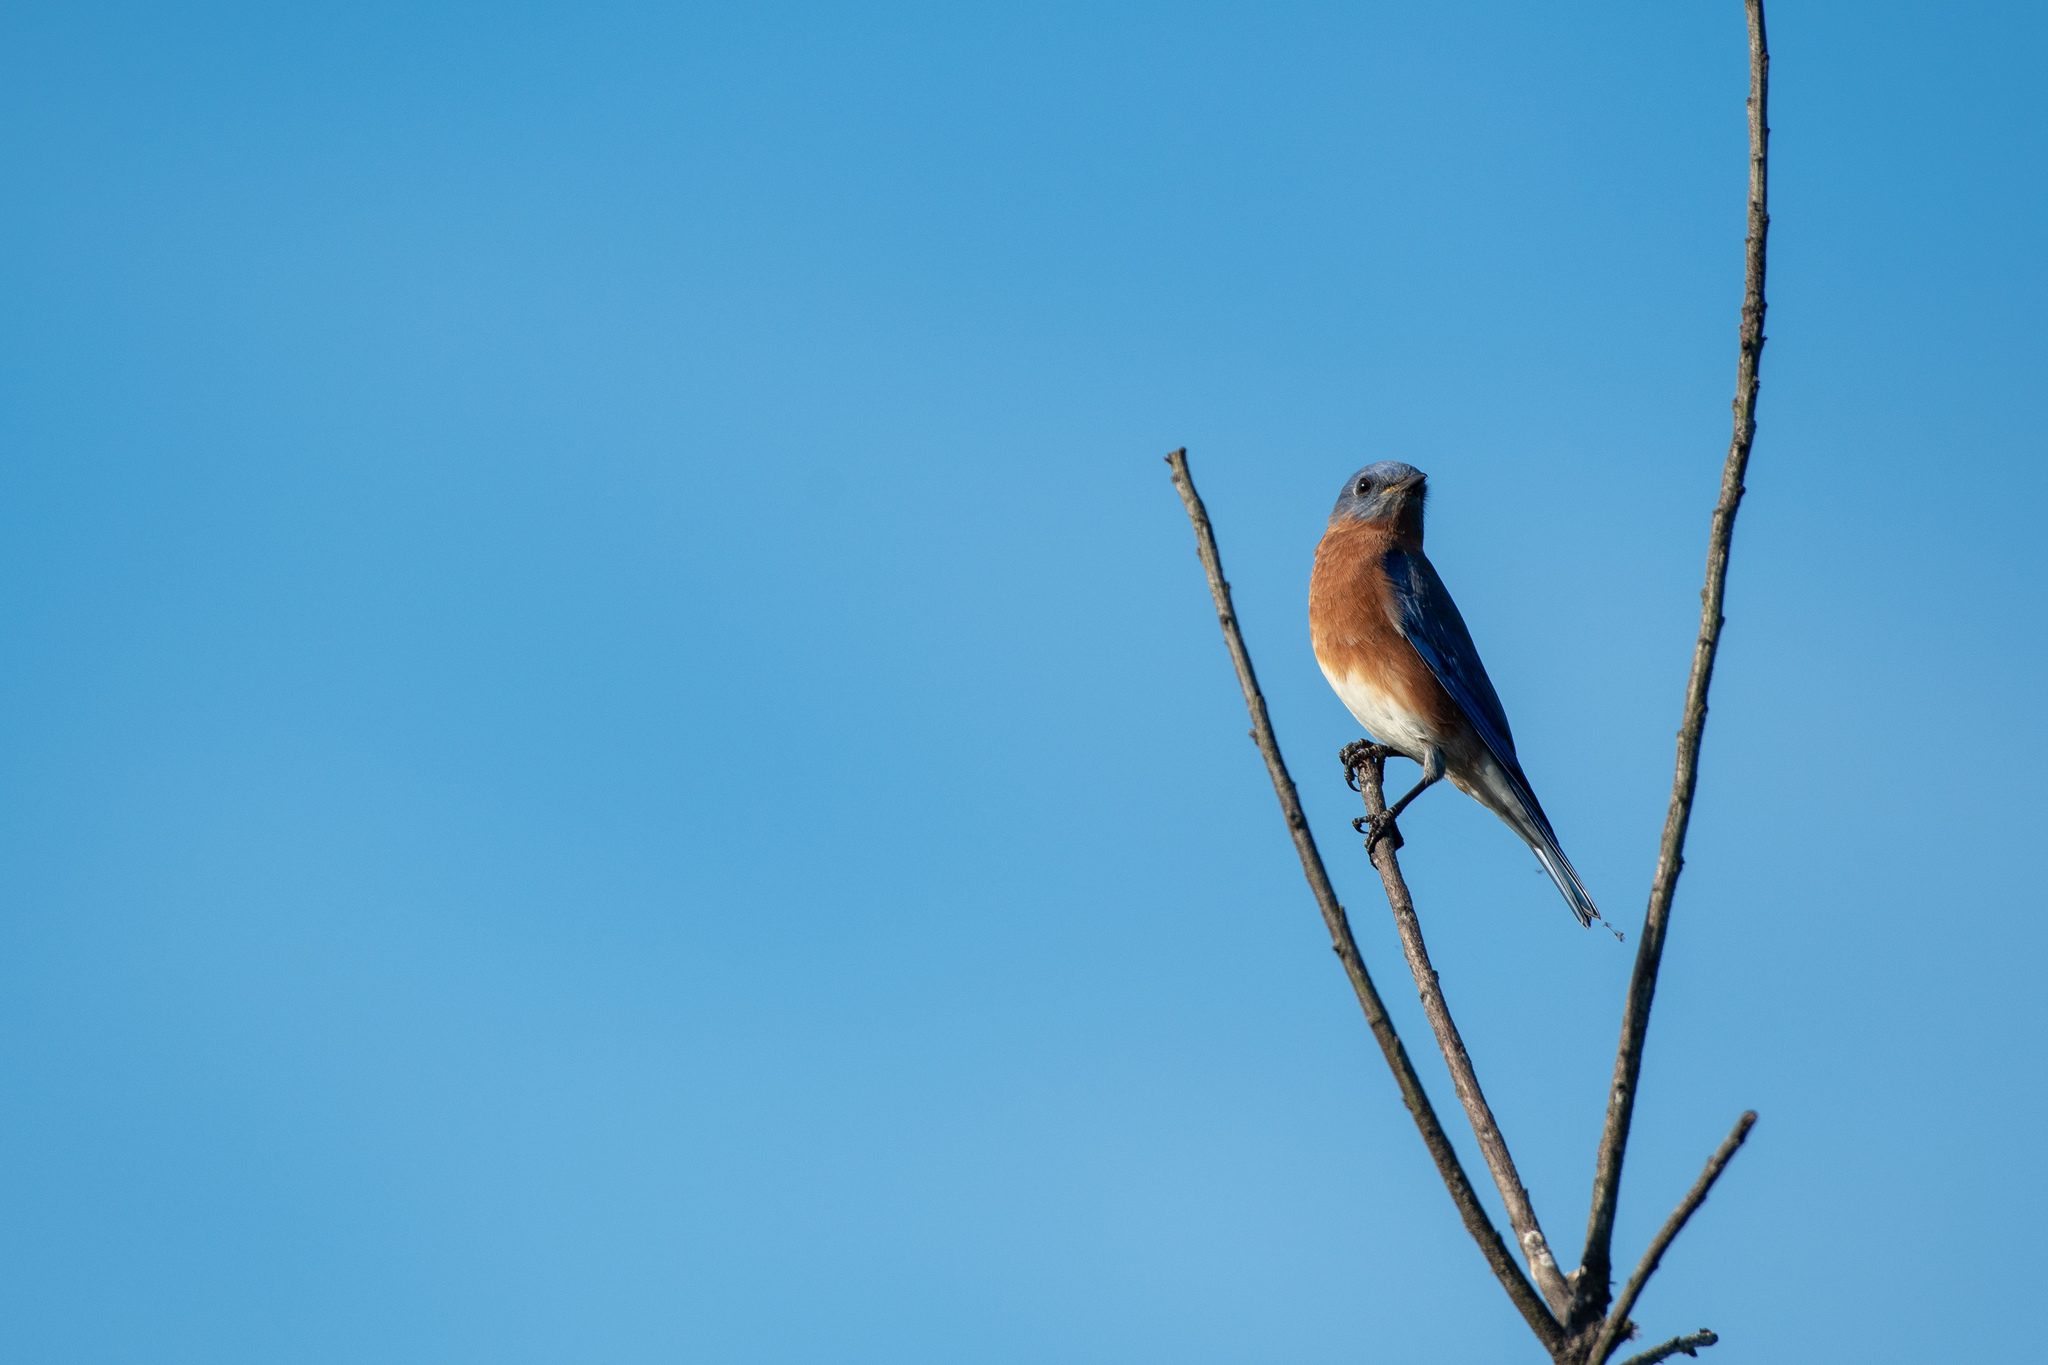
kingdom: Animalia
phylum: Chordata
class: Aves
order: Passeriformes
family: Turdidae
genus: Sialia
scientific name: Sialia sialis
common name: Eastern bluebird
